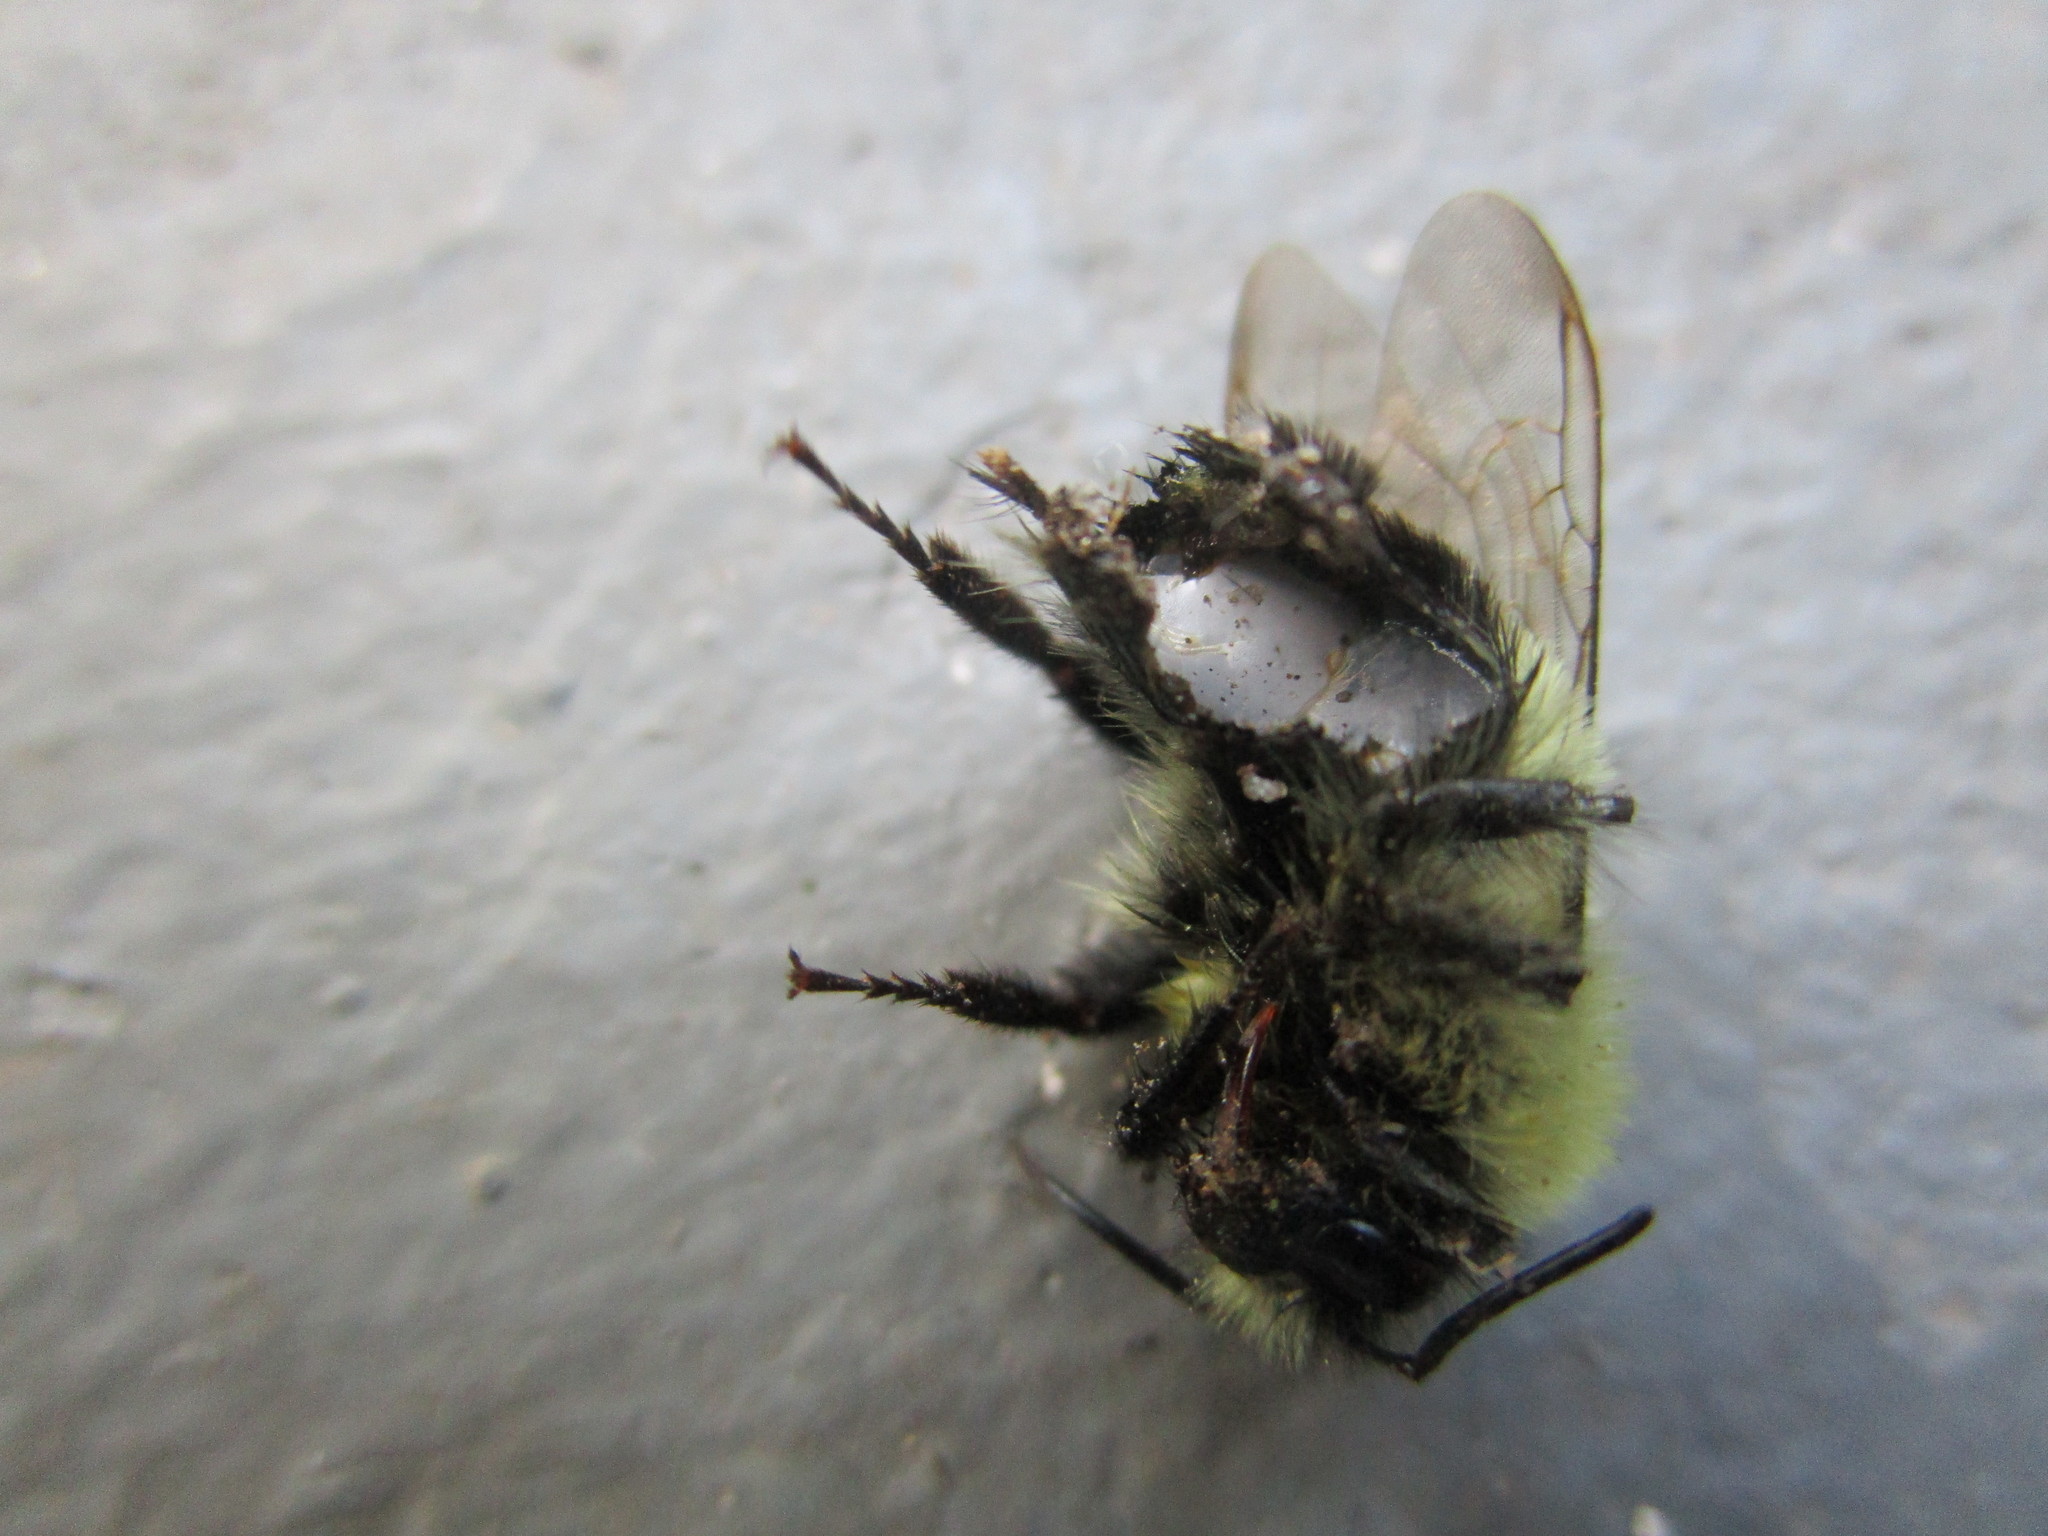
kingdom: Animalia
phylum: Arthropoda
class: Insecta
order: Hymenoptera
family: Apidae
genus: Bombus
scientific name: Bombus impatiens
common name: Common eastern bumble bee
